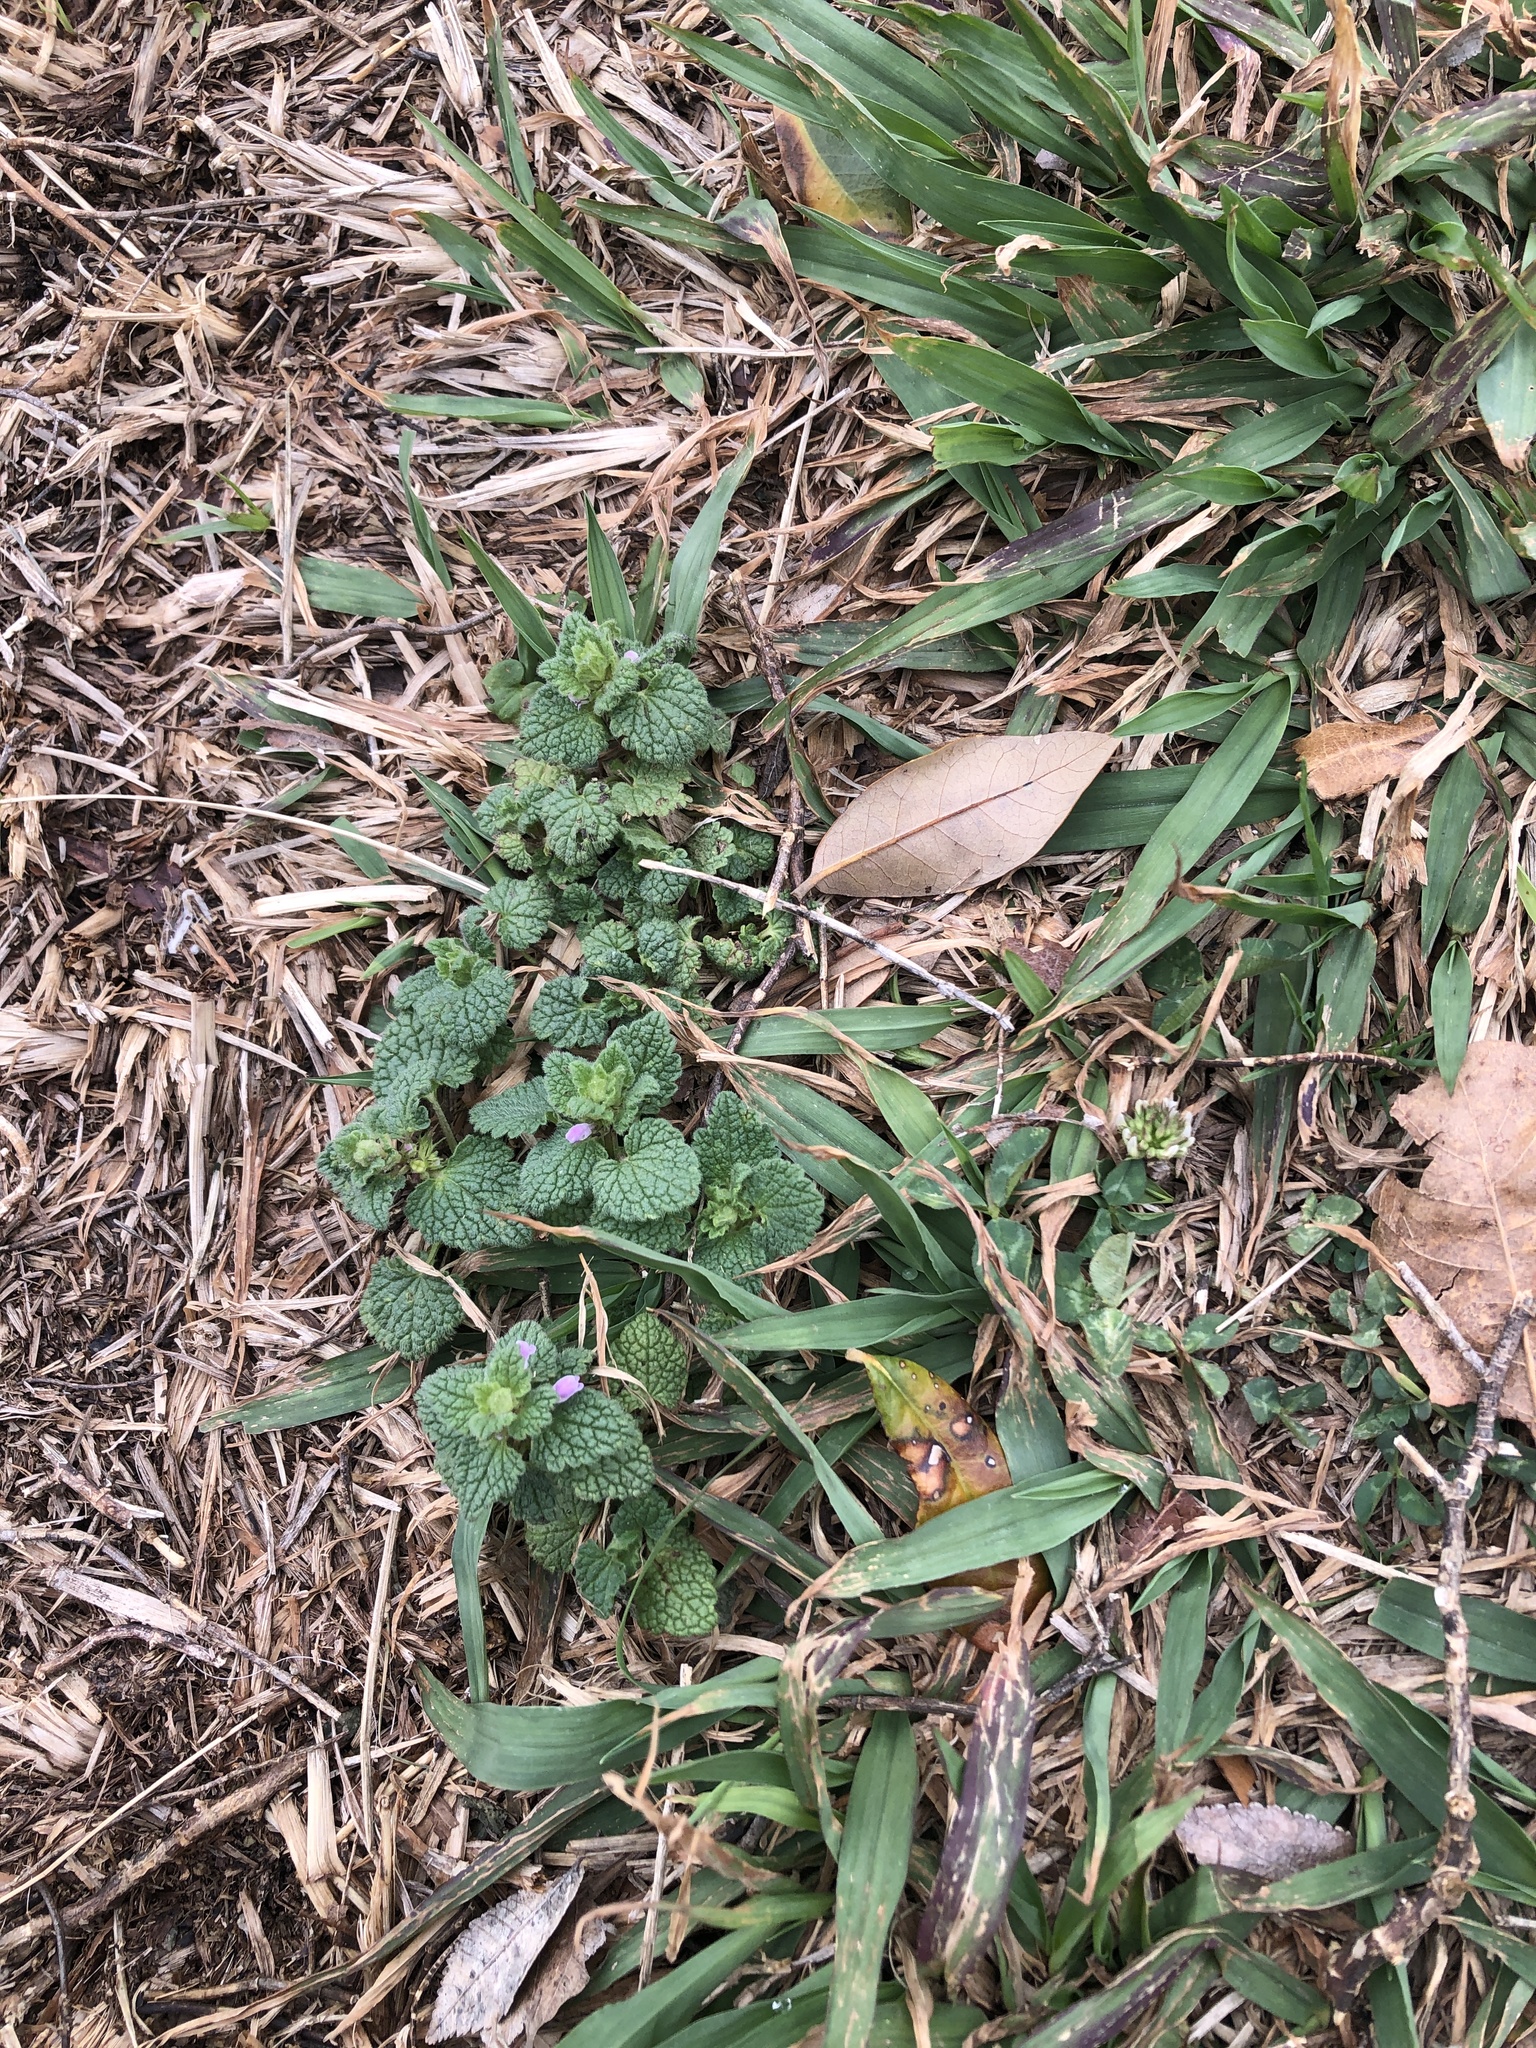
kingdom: Plantae
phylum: Tracheophyta
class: Magnoliopsida
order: Lamiales
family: Lamiaceae
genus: Lamium
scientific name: Lamium purpureum
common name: Red dead-nettle
